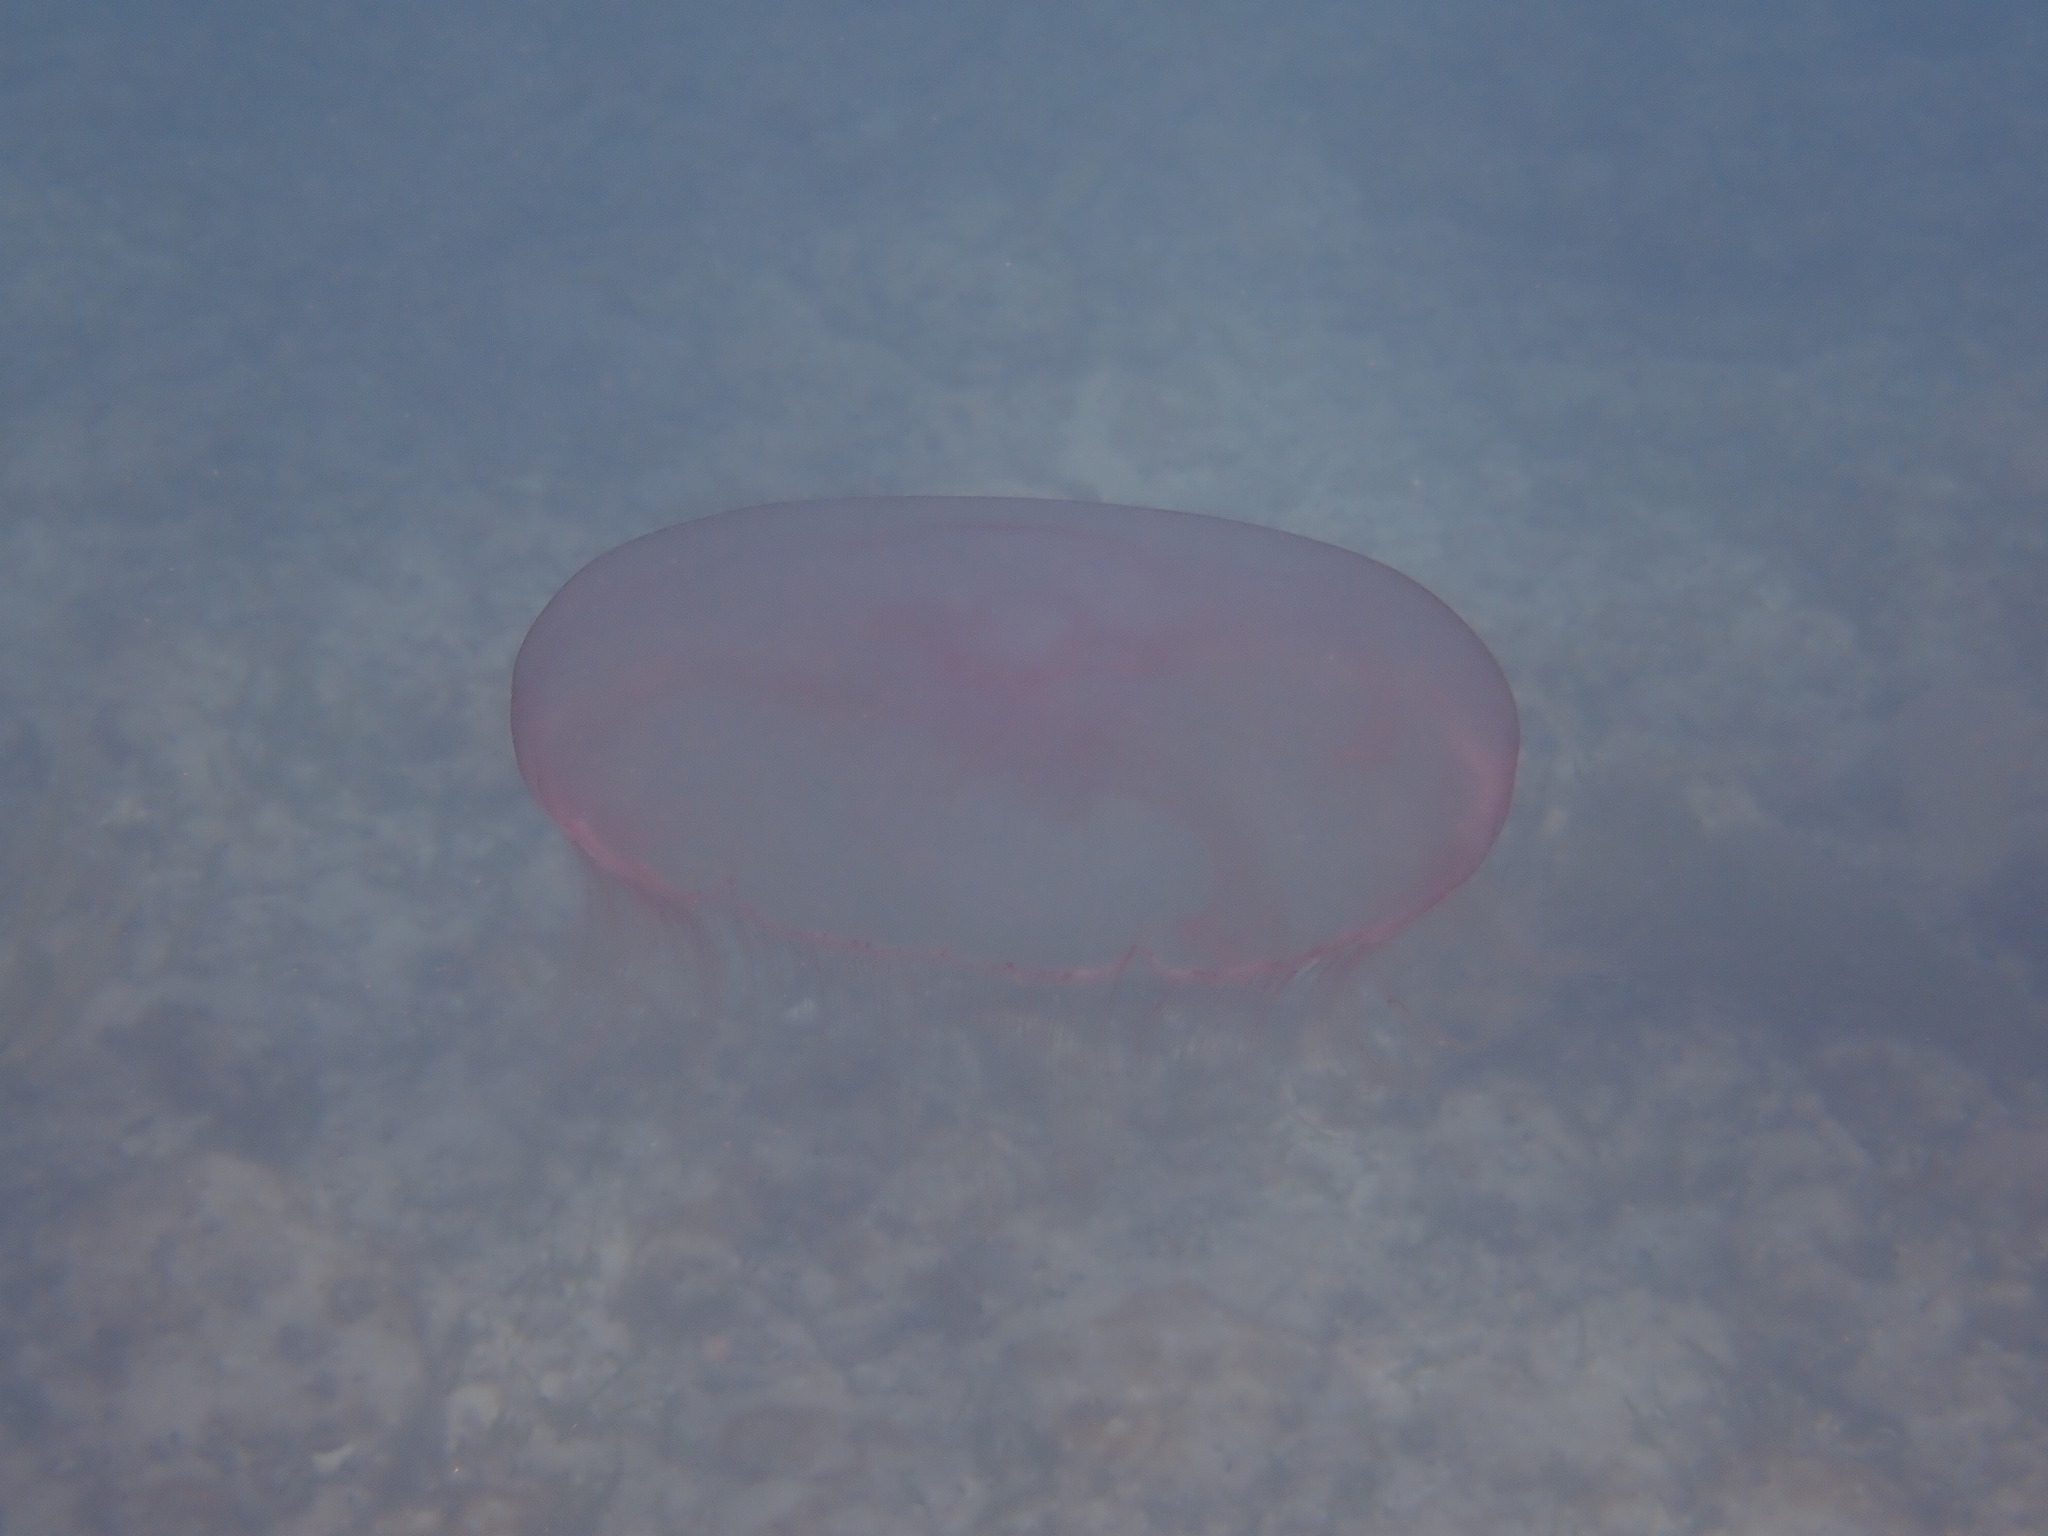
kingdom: Animalia
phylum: Cnidaria
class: Scyphozoa
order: Semaeostomeae
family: Ulmaridae
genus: Aurelia
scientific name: Aurelia marginalis
